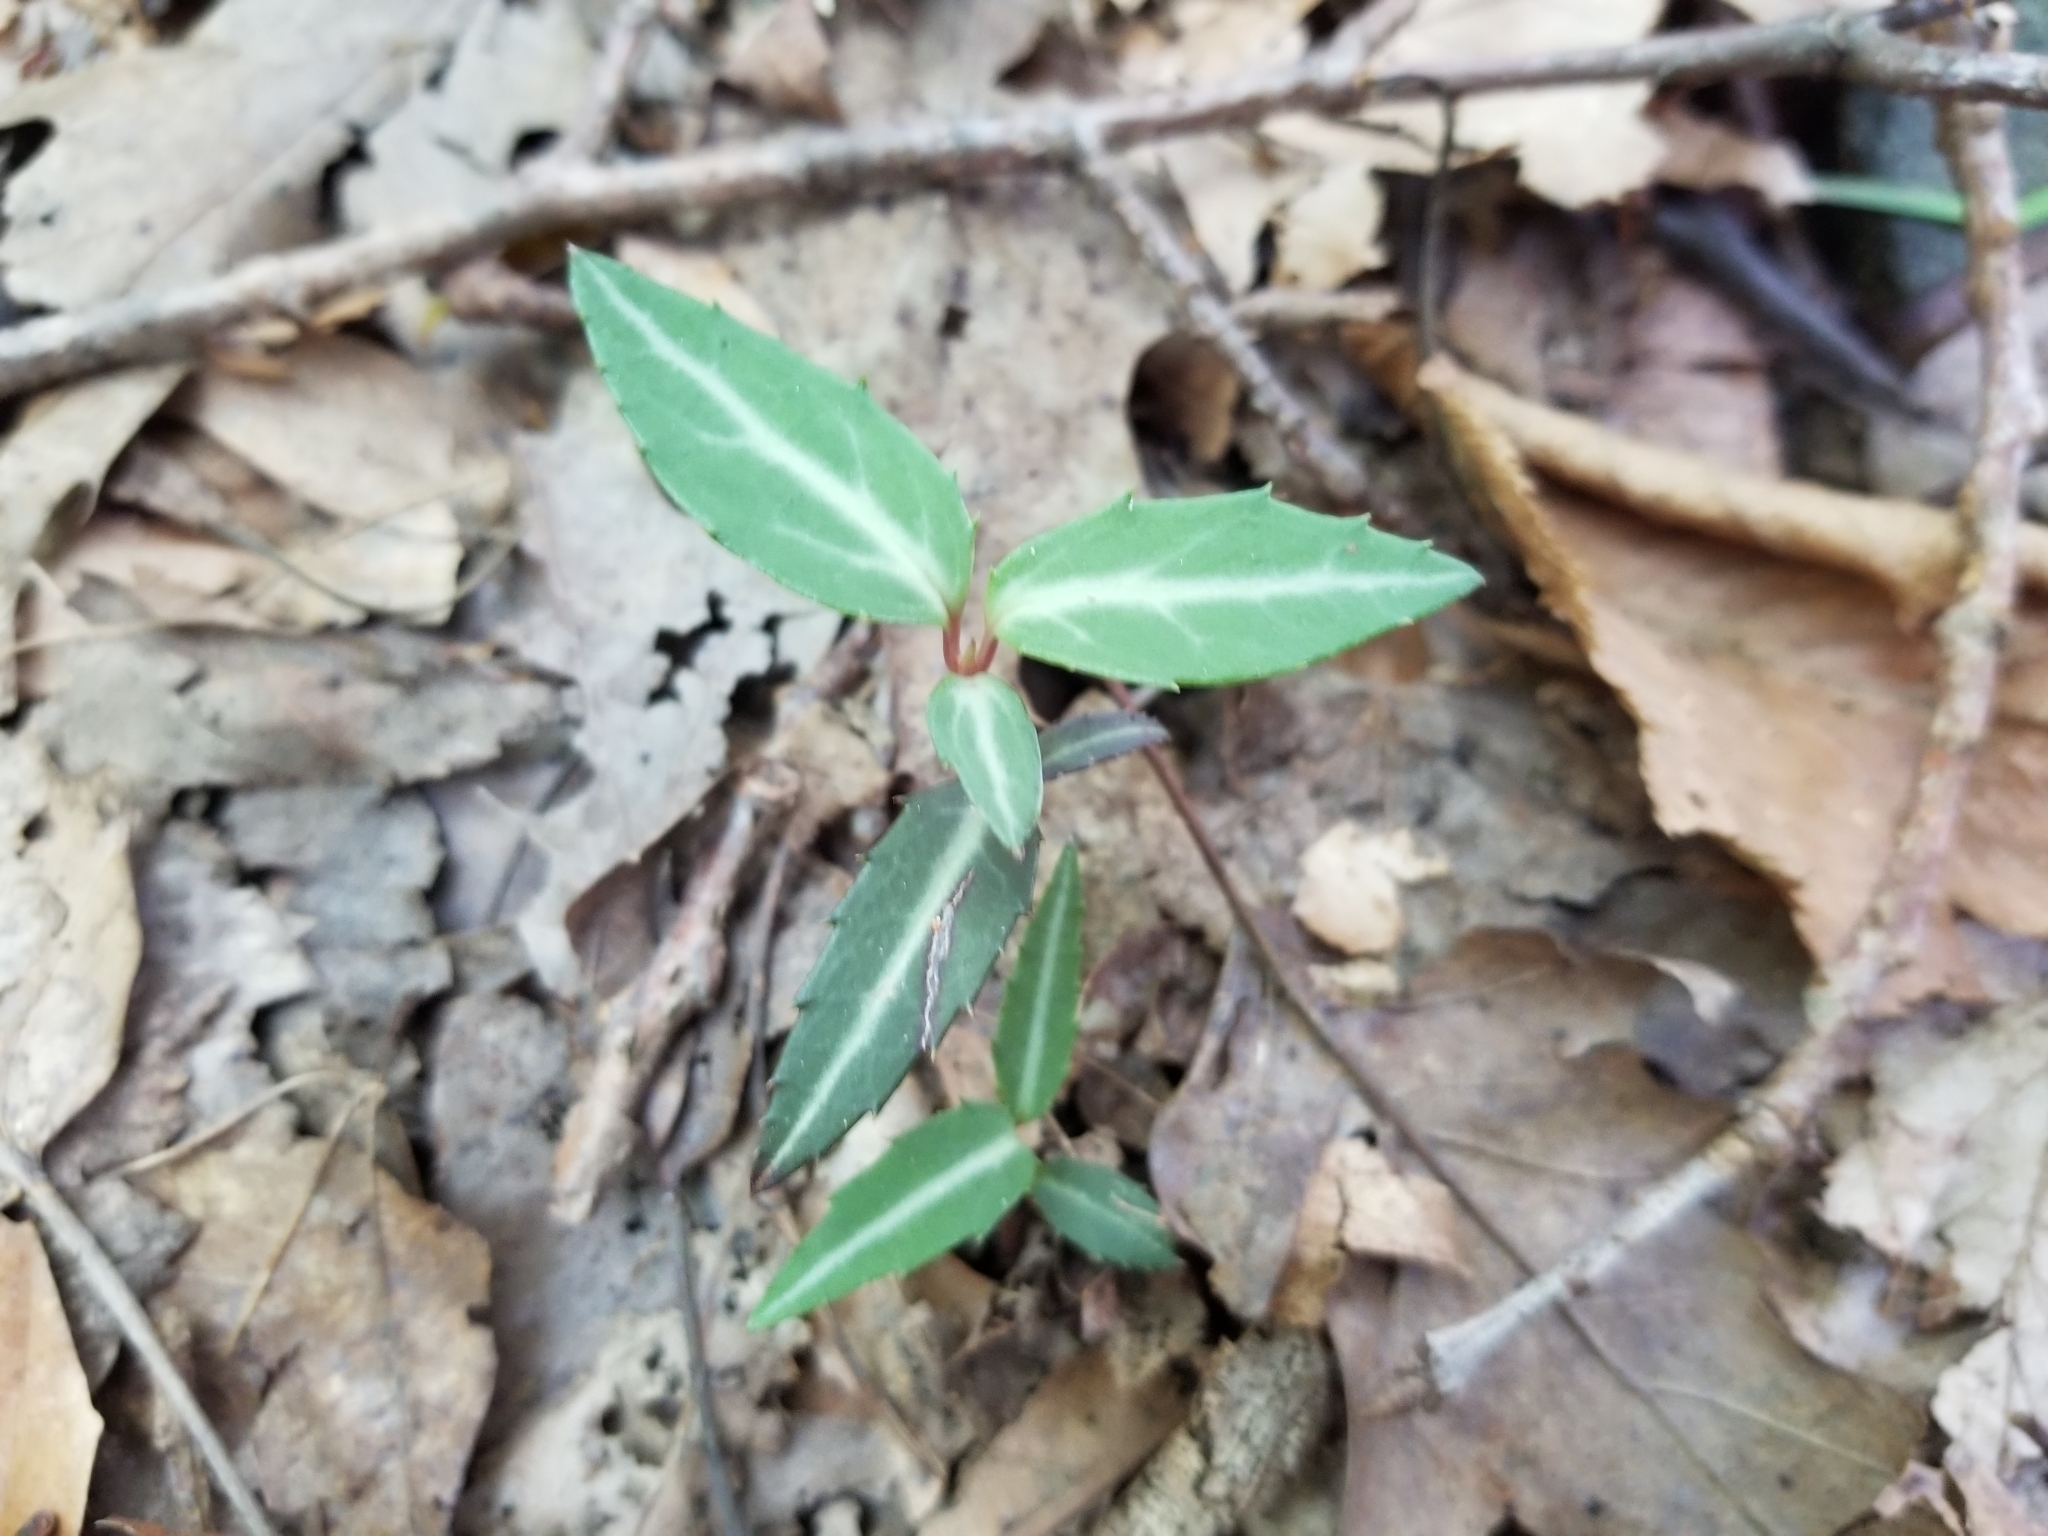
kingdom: Plantae
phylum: Tracheophyta
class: Magnoliopsida
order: Ericales
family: Ericaceae
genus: Chimaphila
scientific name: Chimaphila maculata
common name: Spotted pipsissewa
